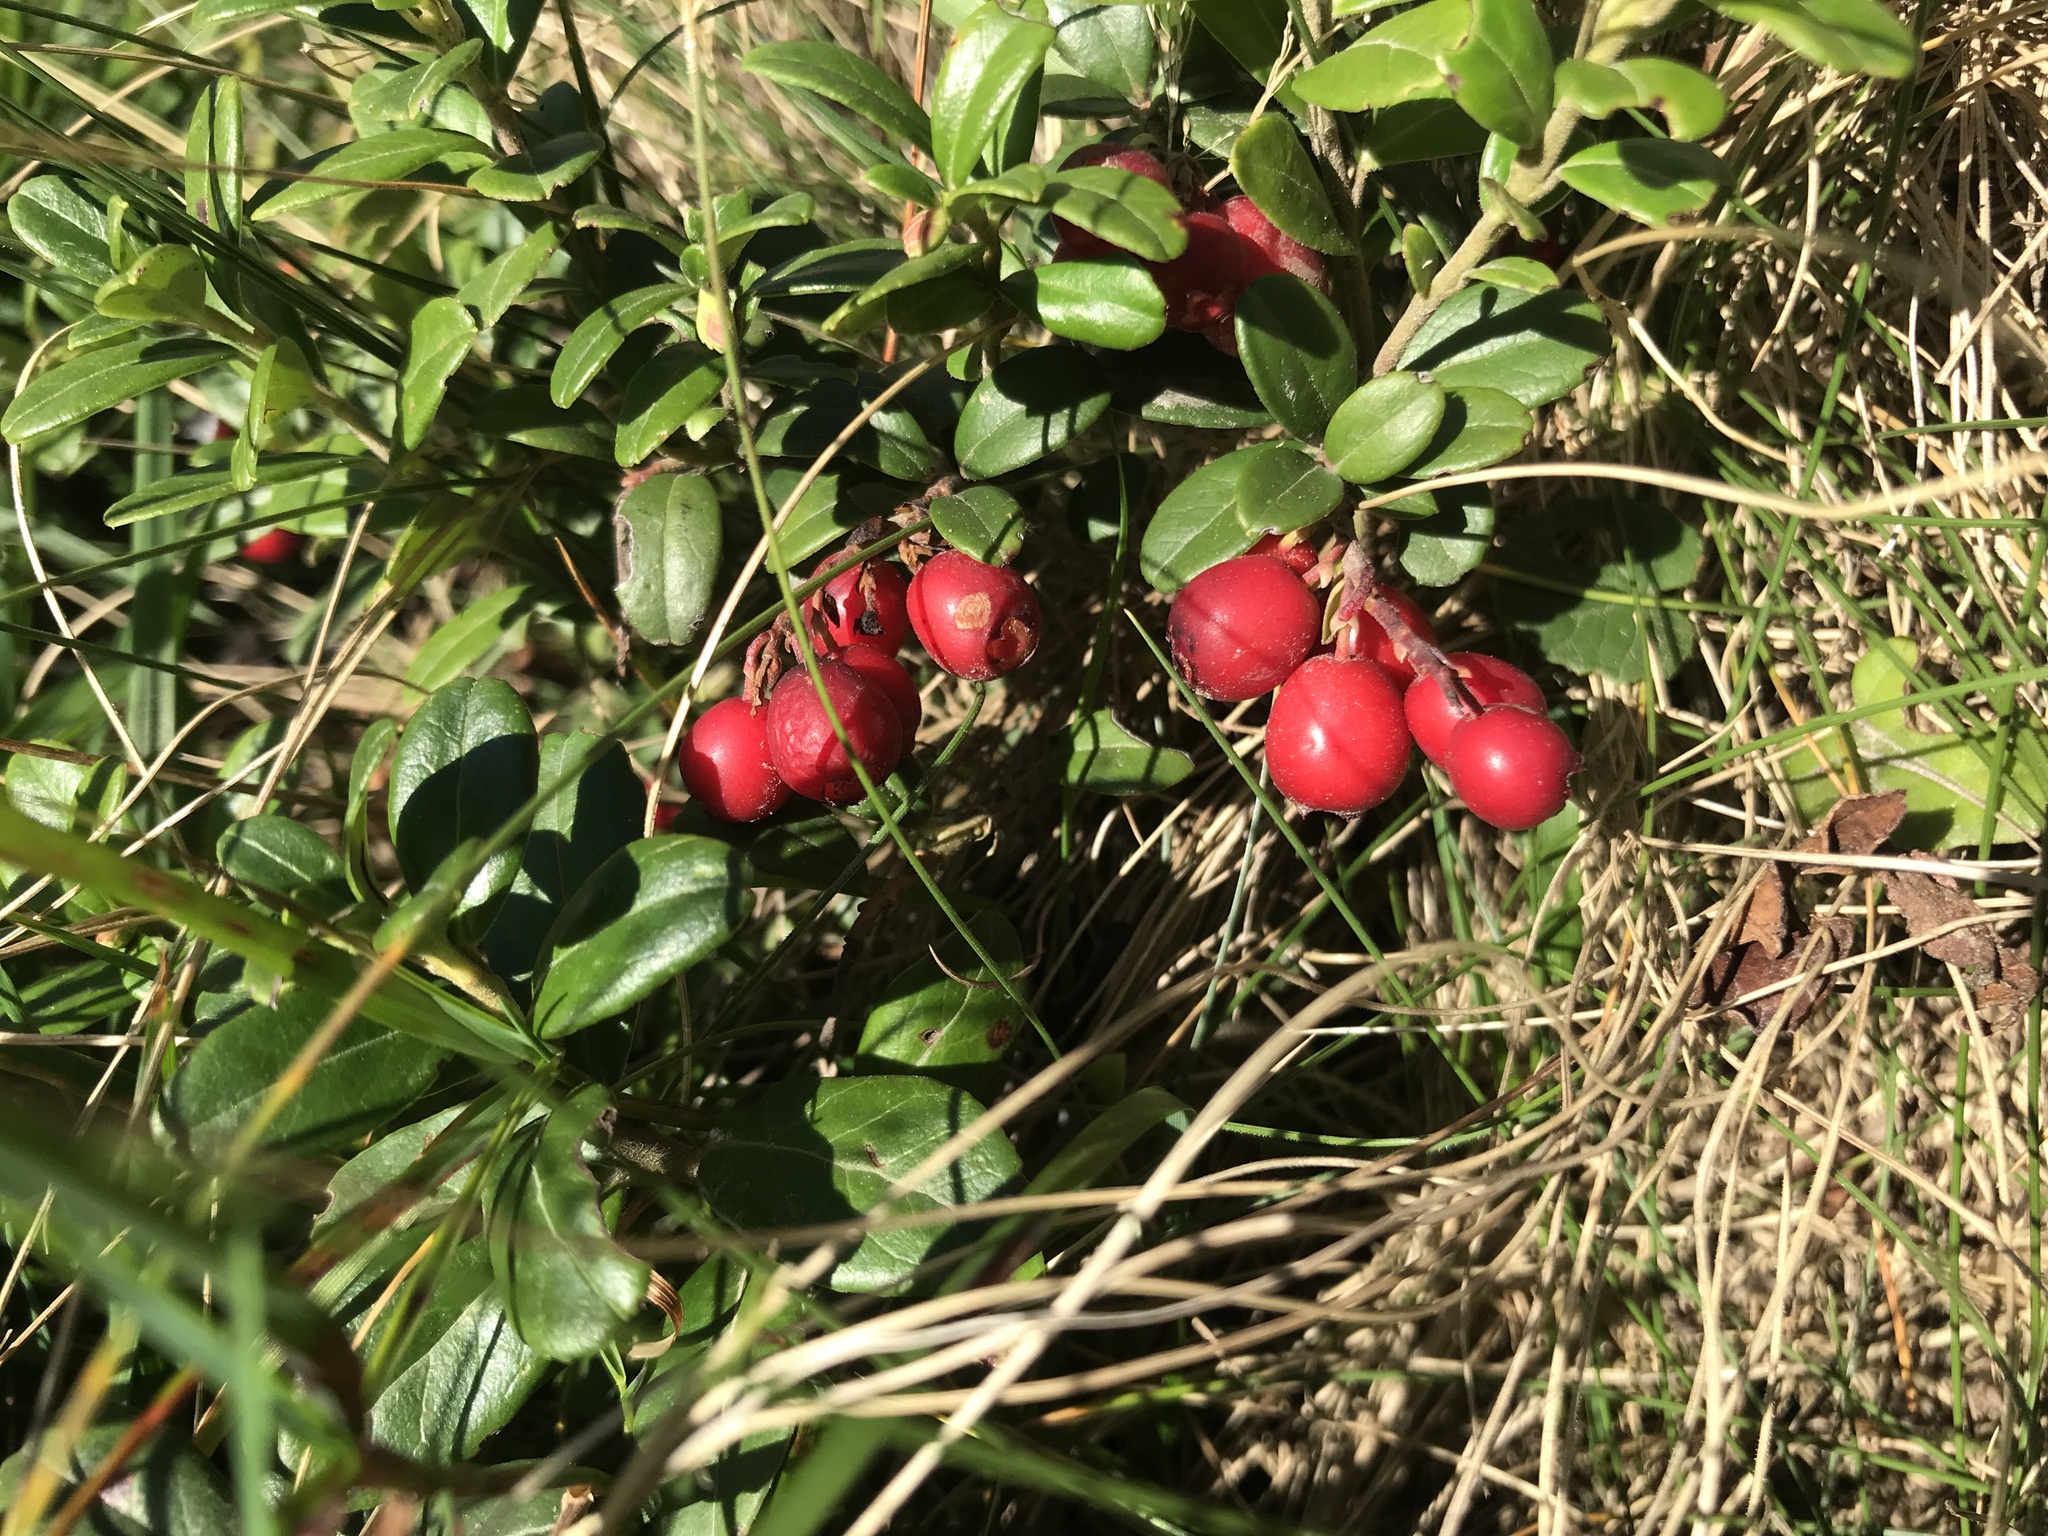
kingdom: Plantae
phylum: Tracheophyta
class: Magnoliopsida
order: Ericales
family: Ericaceae
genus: Vaccinium
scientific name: Vaccinium vitis-idaea
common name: Cowberry
